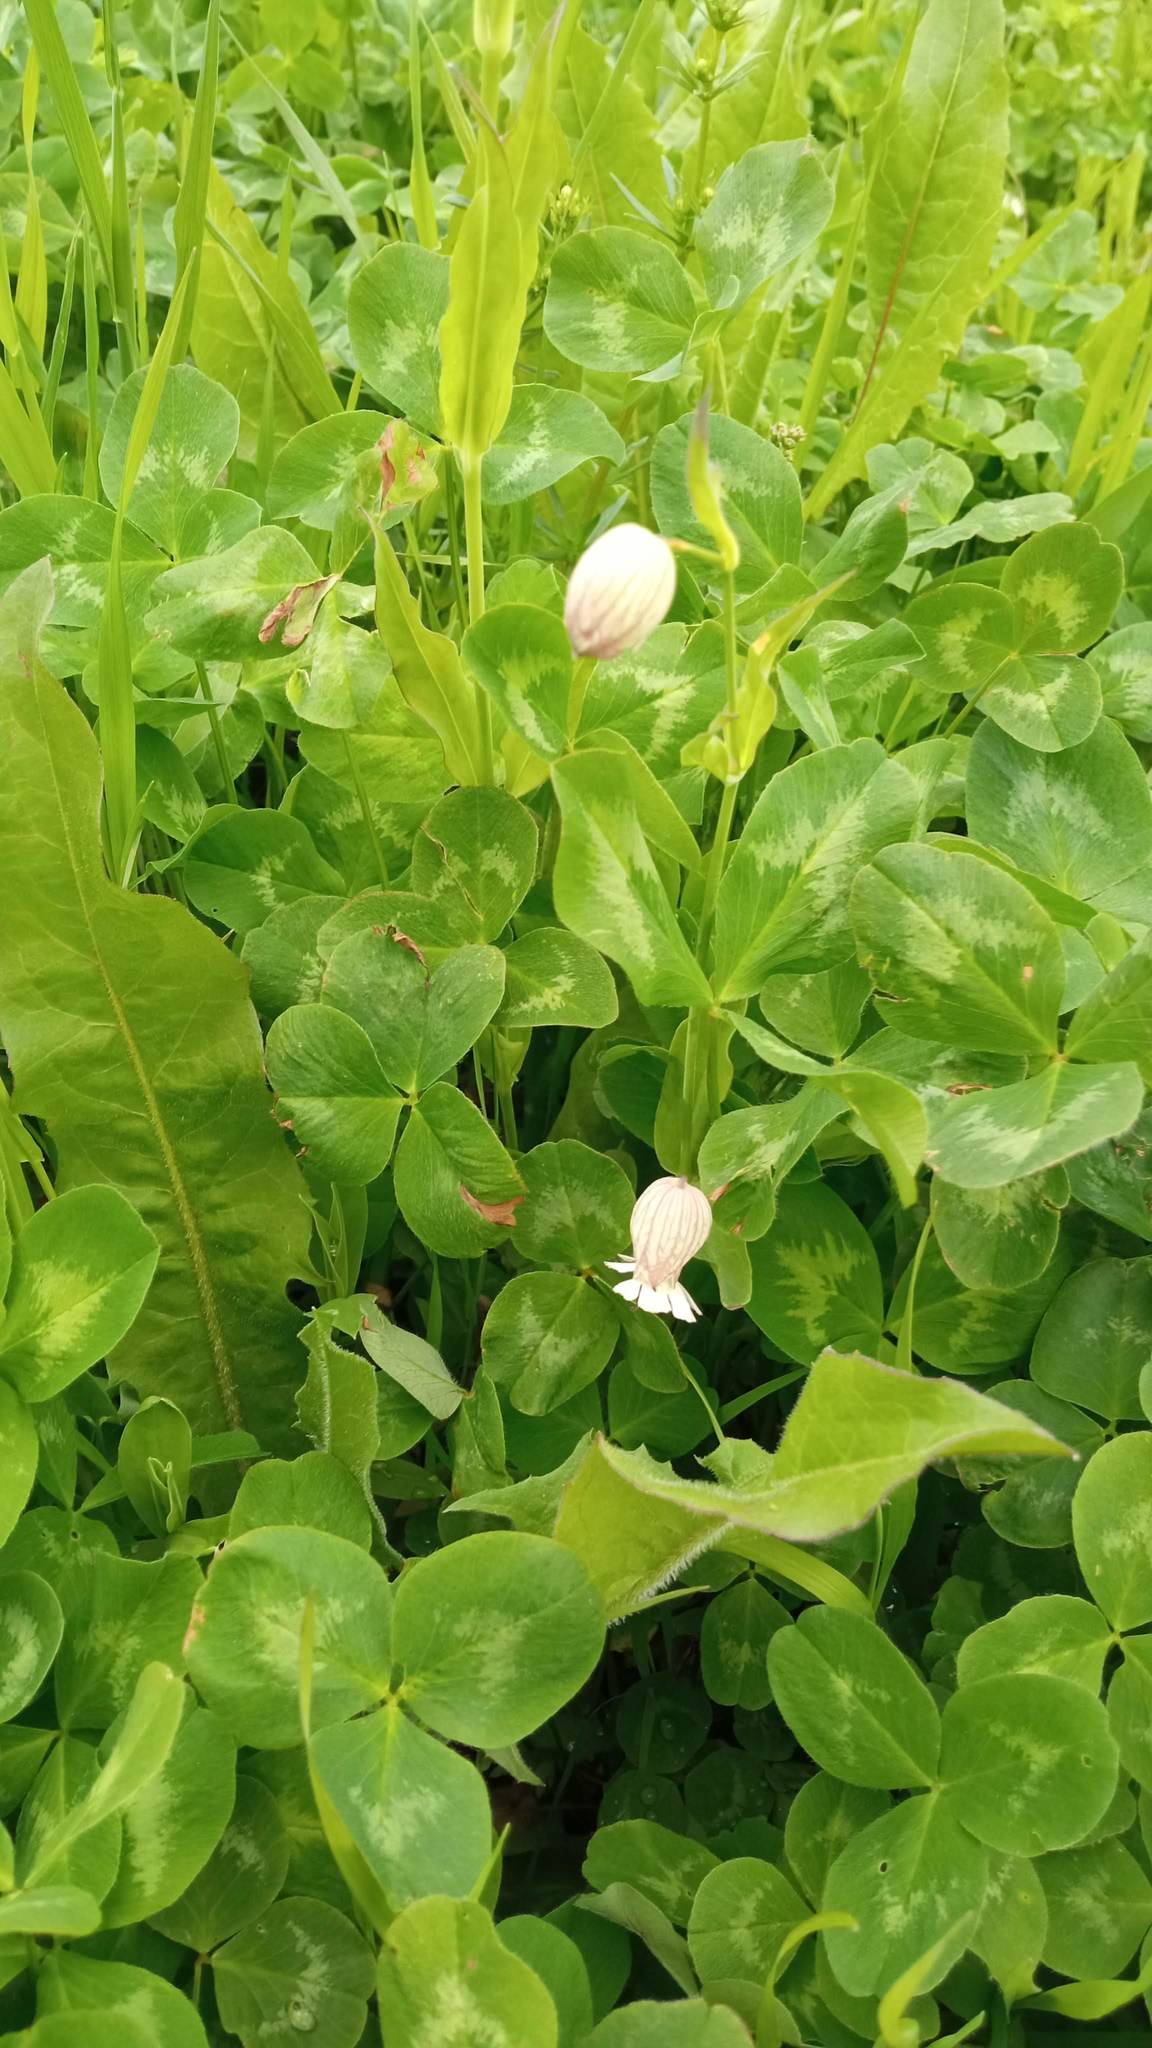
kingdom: Plantae
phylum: Tracheophyta
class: Magnoliopsida
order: Caryophyllales
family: Caryophyllaceae
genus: Silene
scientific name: Silene vulgaris
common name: Bladder campion
